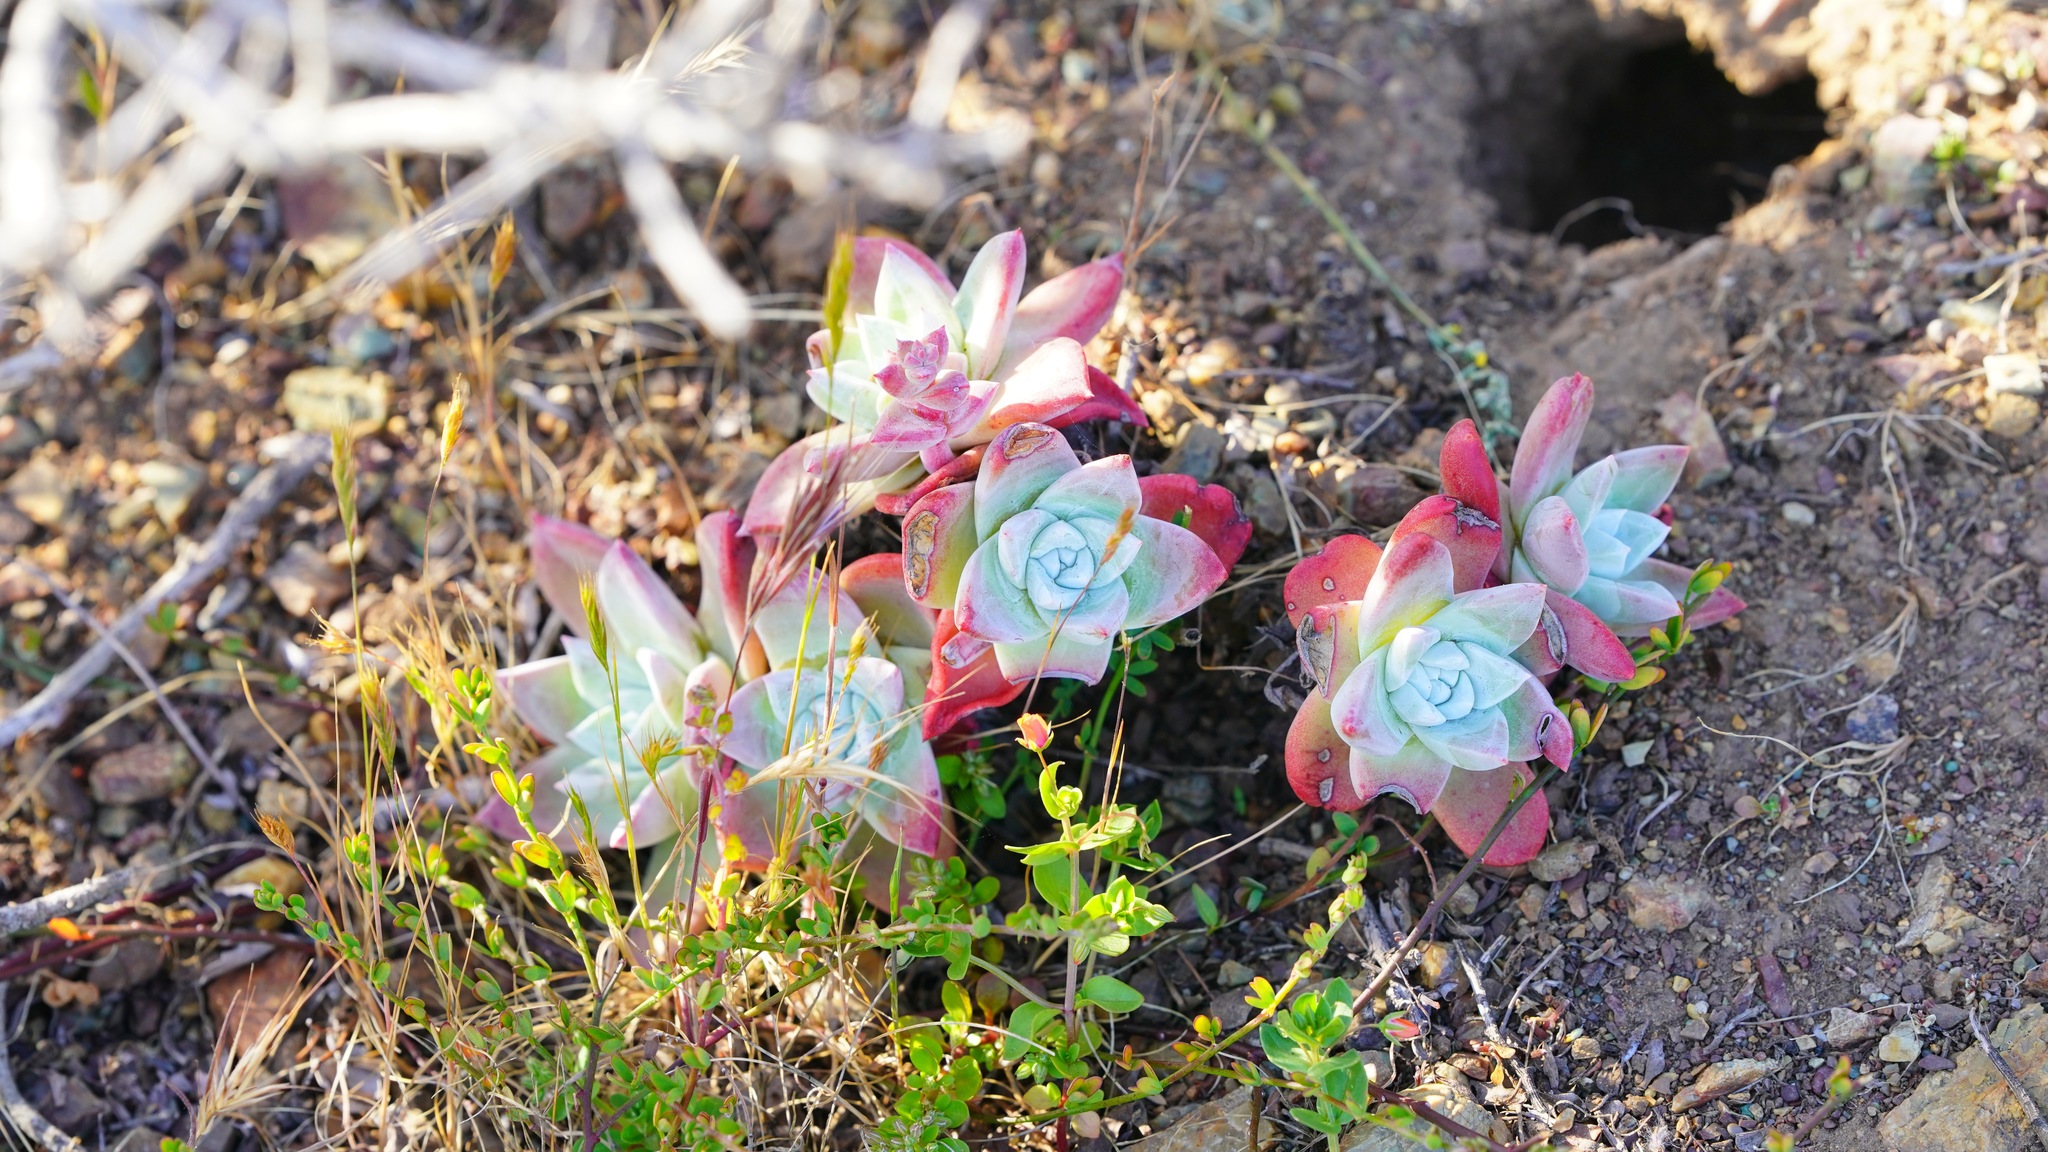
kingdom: Plantae
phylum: Tracheophyta
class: Magnoliopsida
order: Saxifragales
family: Crassulaceae
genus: Dudleya
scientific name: Dudleya farinosa
